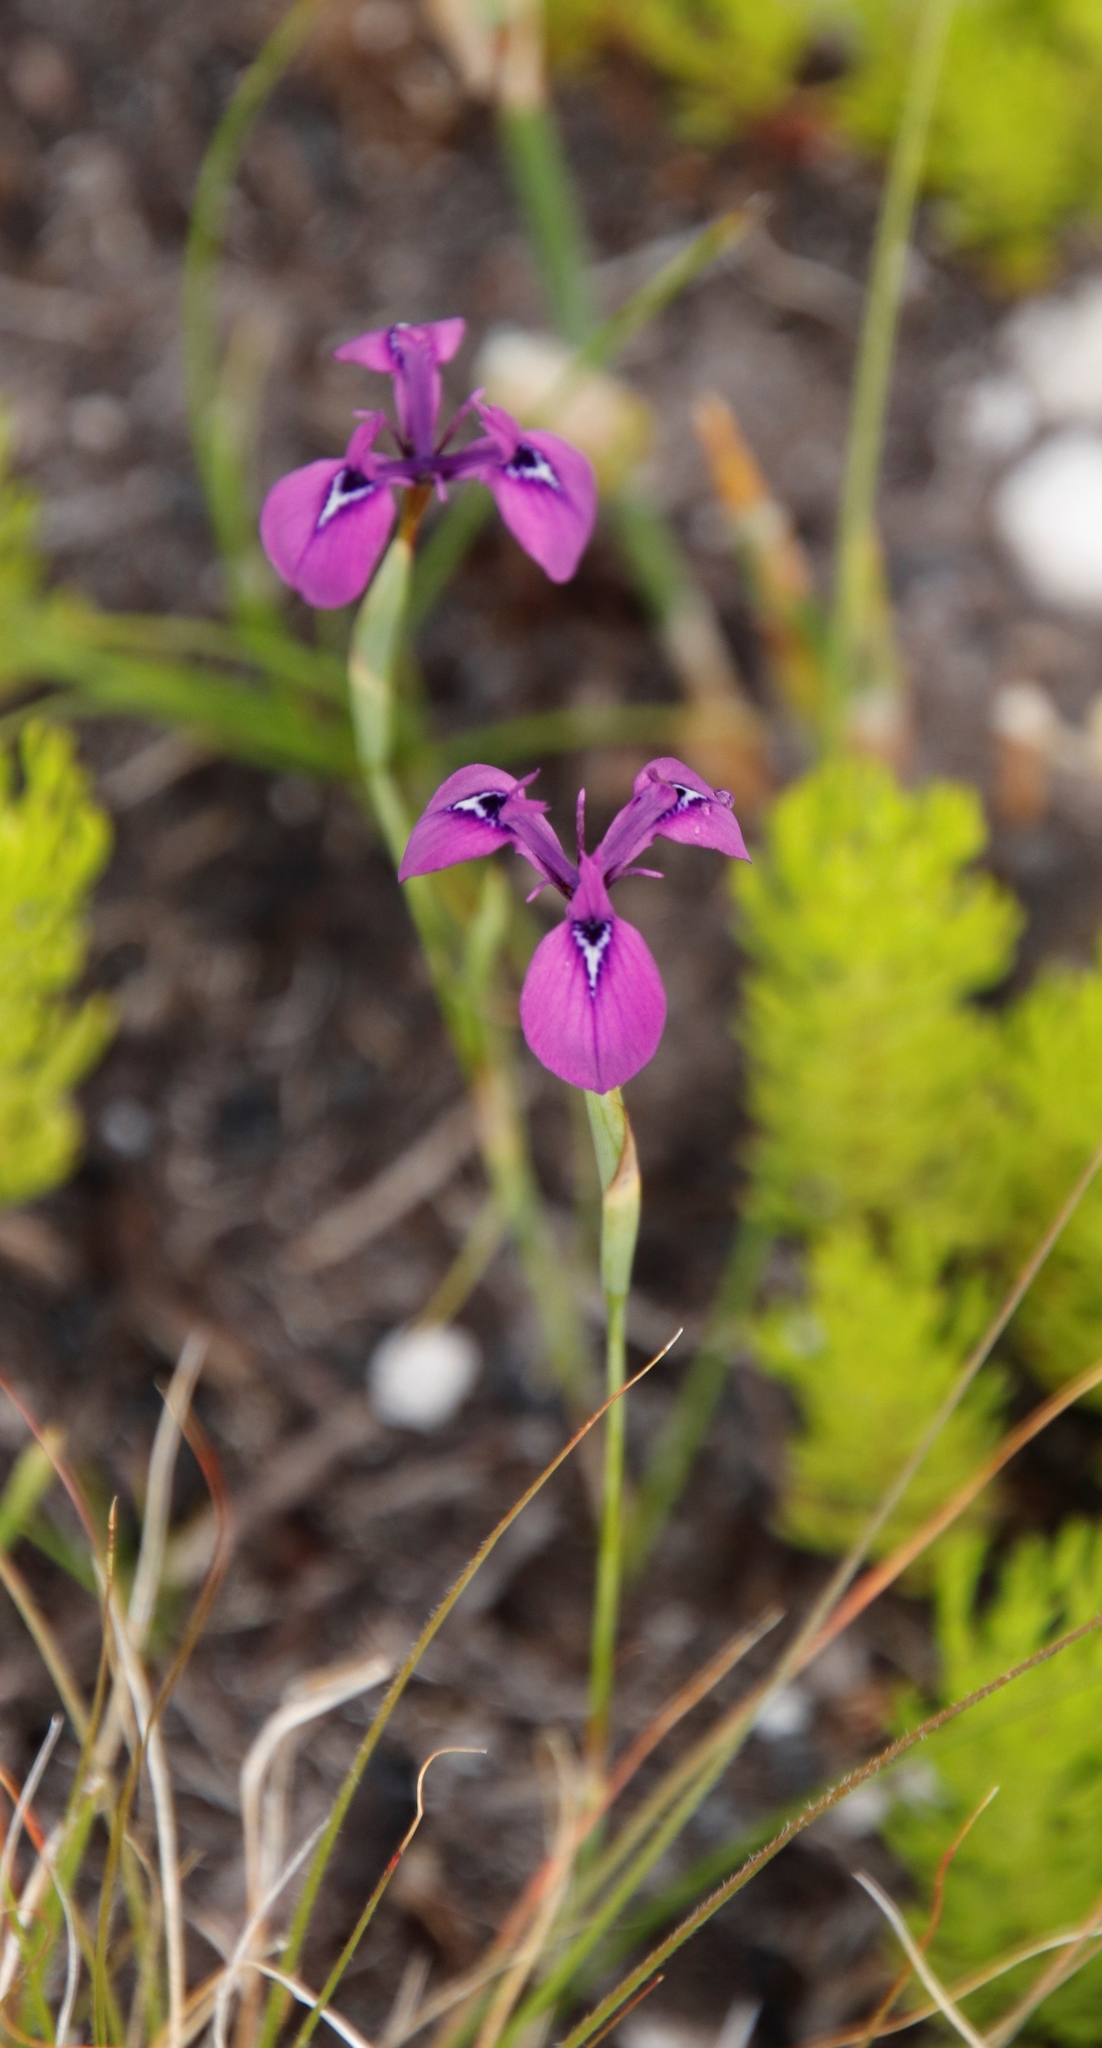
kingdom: Plantae
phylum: Tracheophyta
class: Liliopsida
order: Asparagales
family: Iridaceae
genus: Moraea
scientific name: Moraea tripetala
